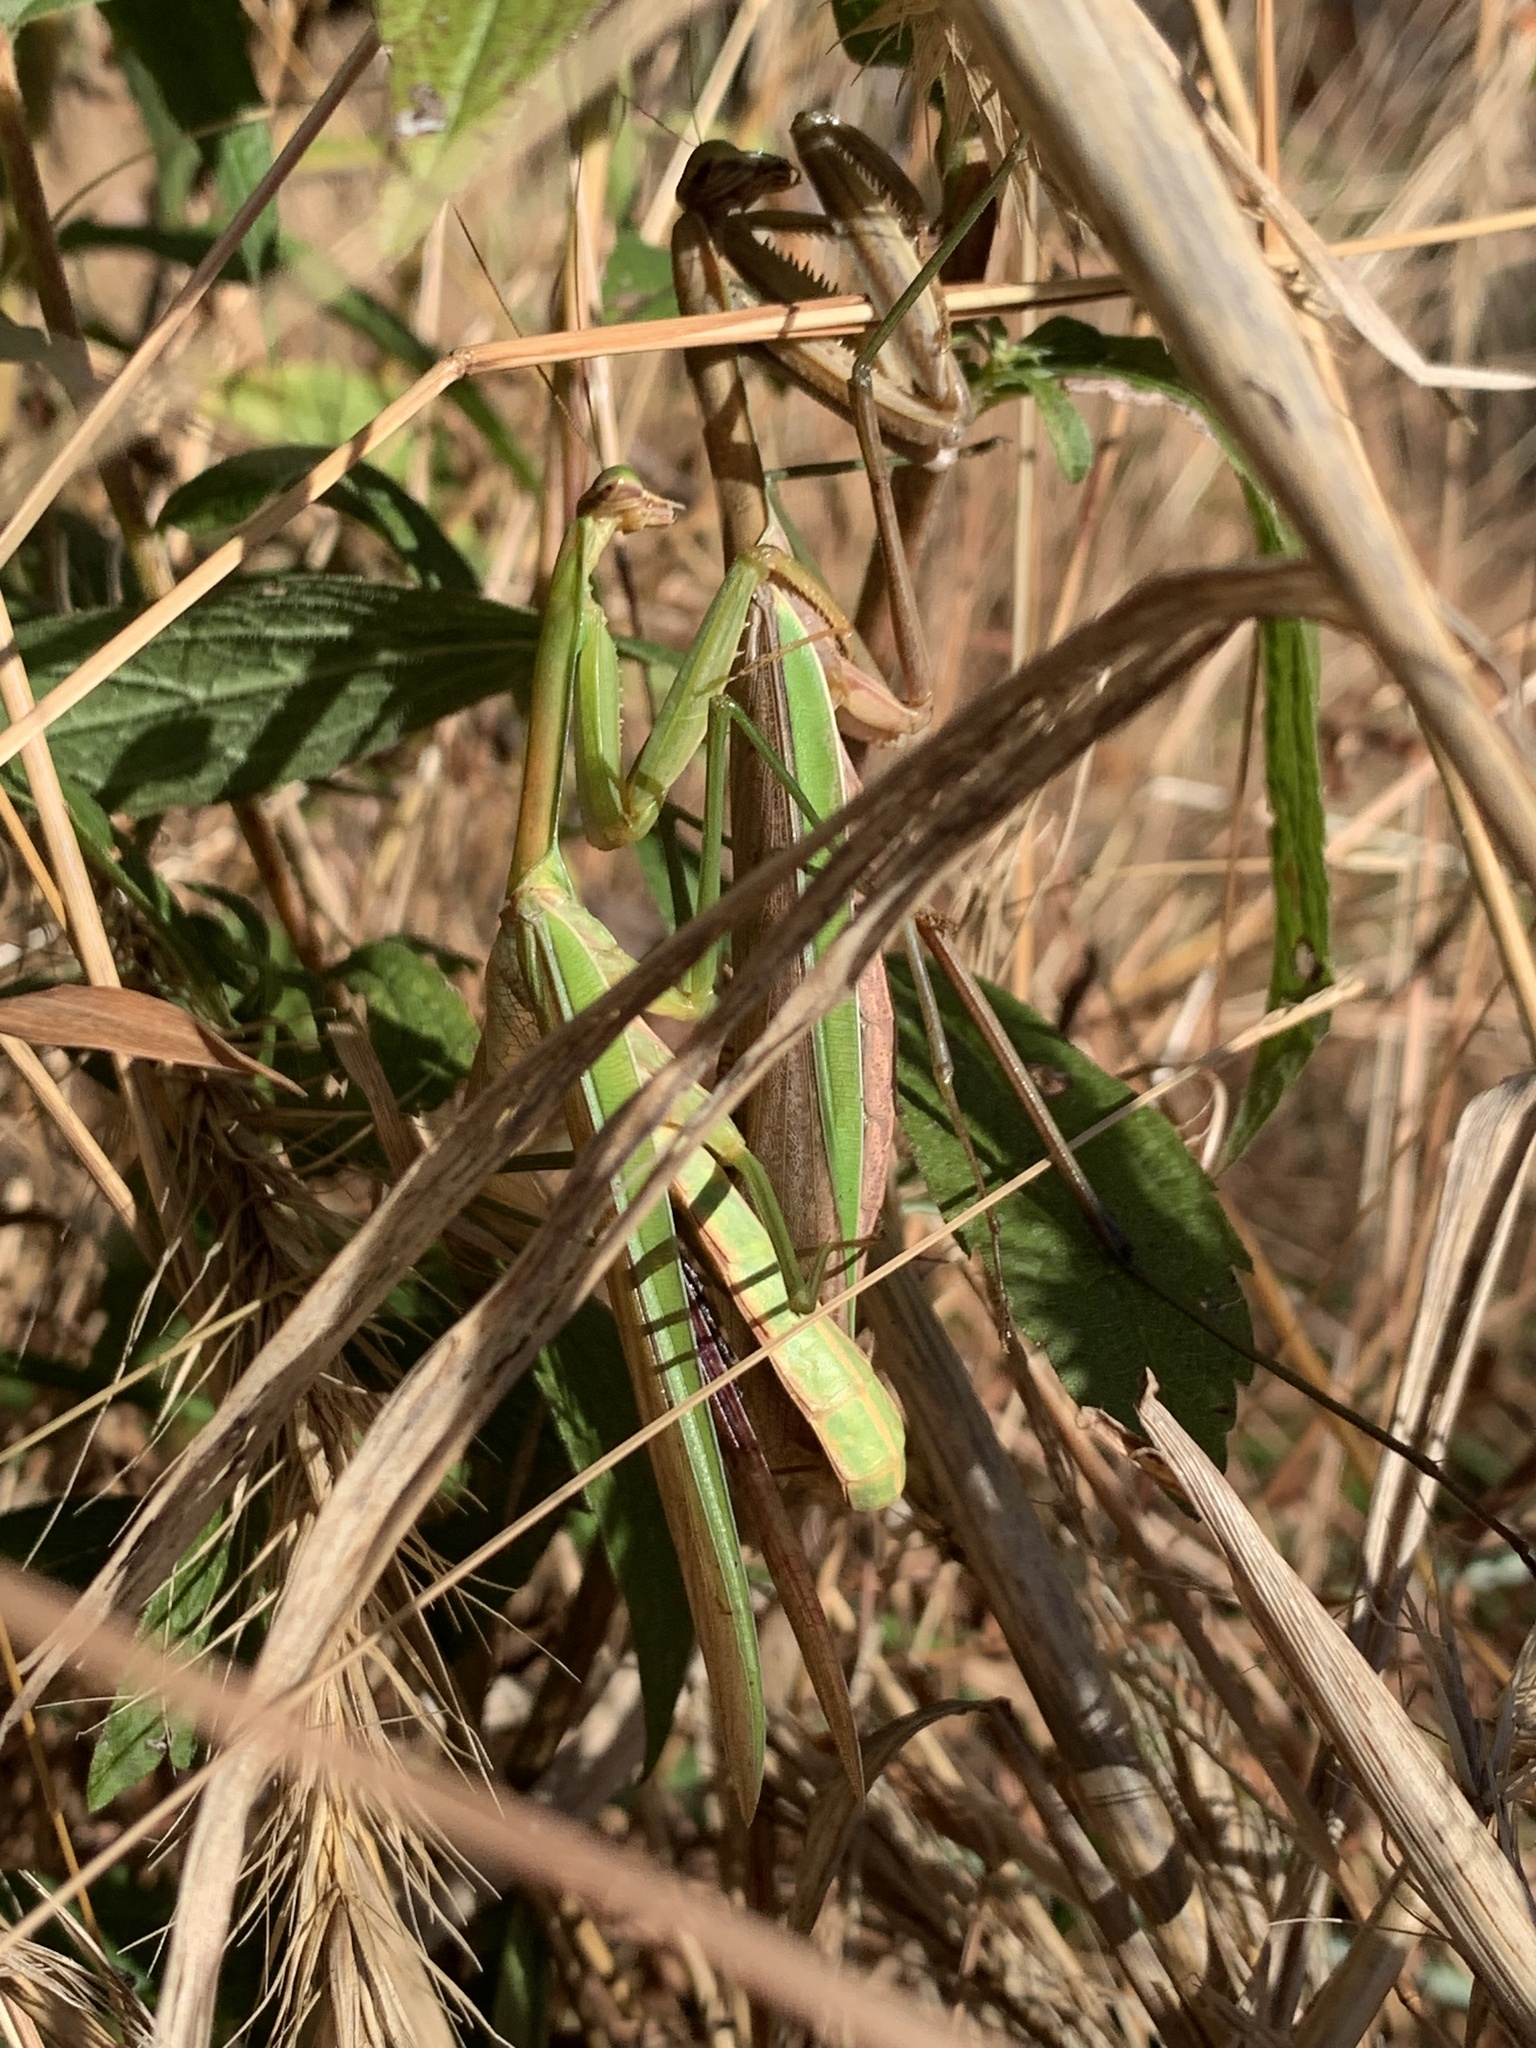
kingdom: Animalia
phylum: Arthropoda
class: Insecta
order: Mantodea
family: Mantidae
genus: Tenodera
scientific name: Tenodera sinensis
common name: Chinese mantis
